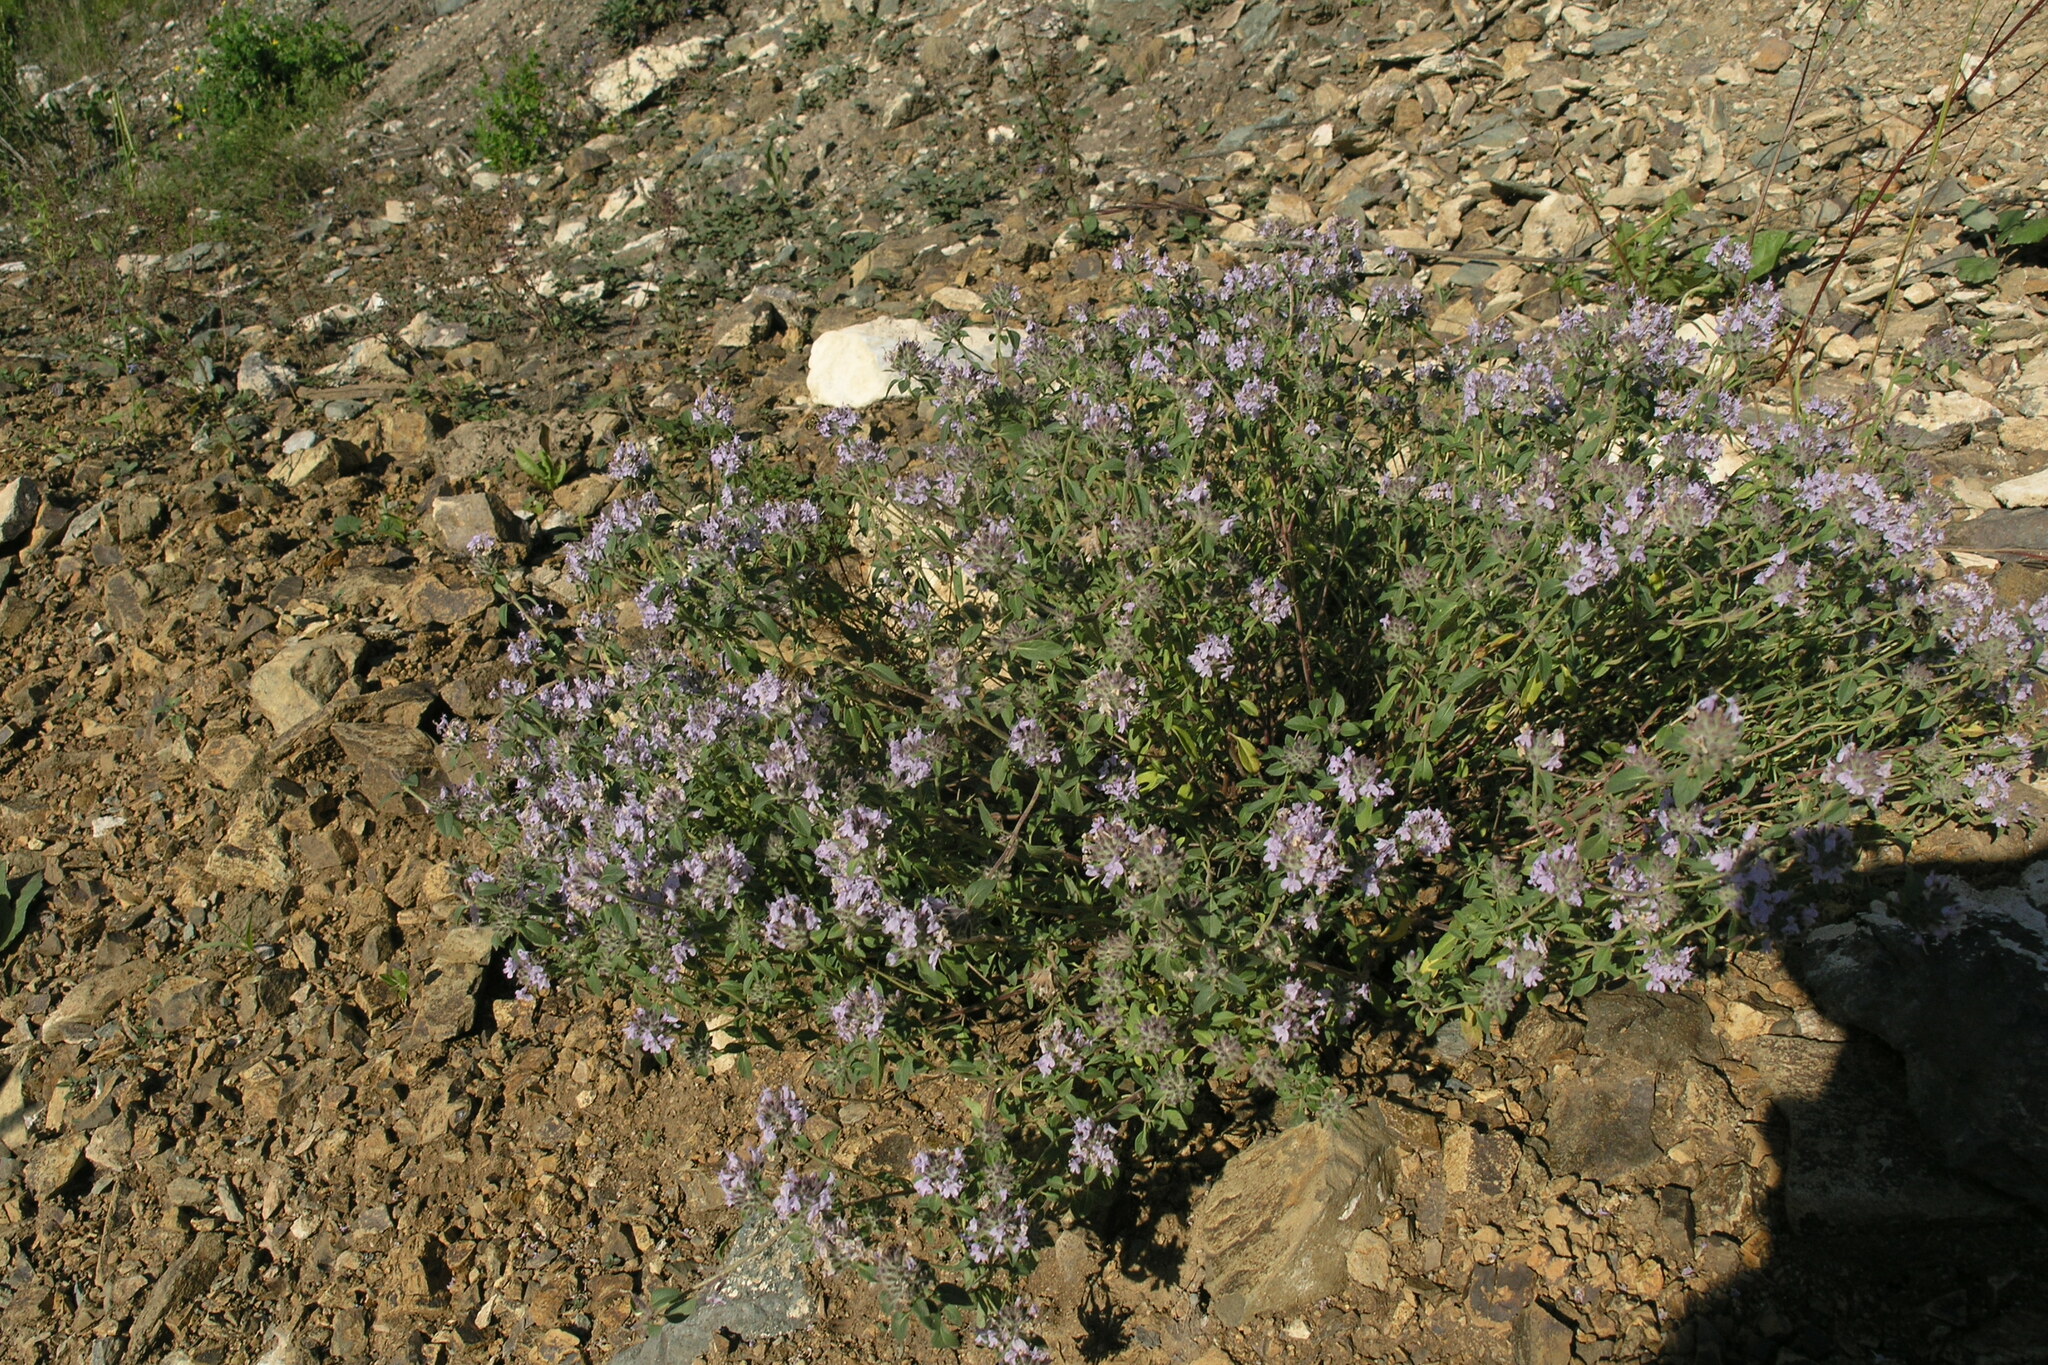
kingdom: Plantae
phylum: Tracheophyta
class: Magnoliopsida
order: Lamiales
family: Lamiaceae
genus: Ziziphora
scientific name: Ziziphora clinopodioides
